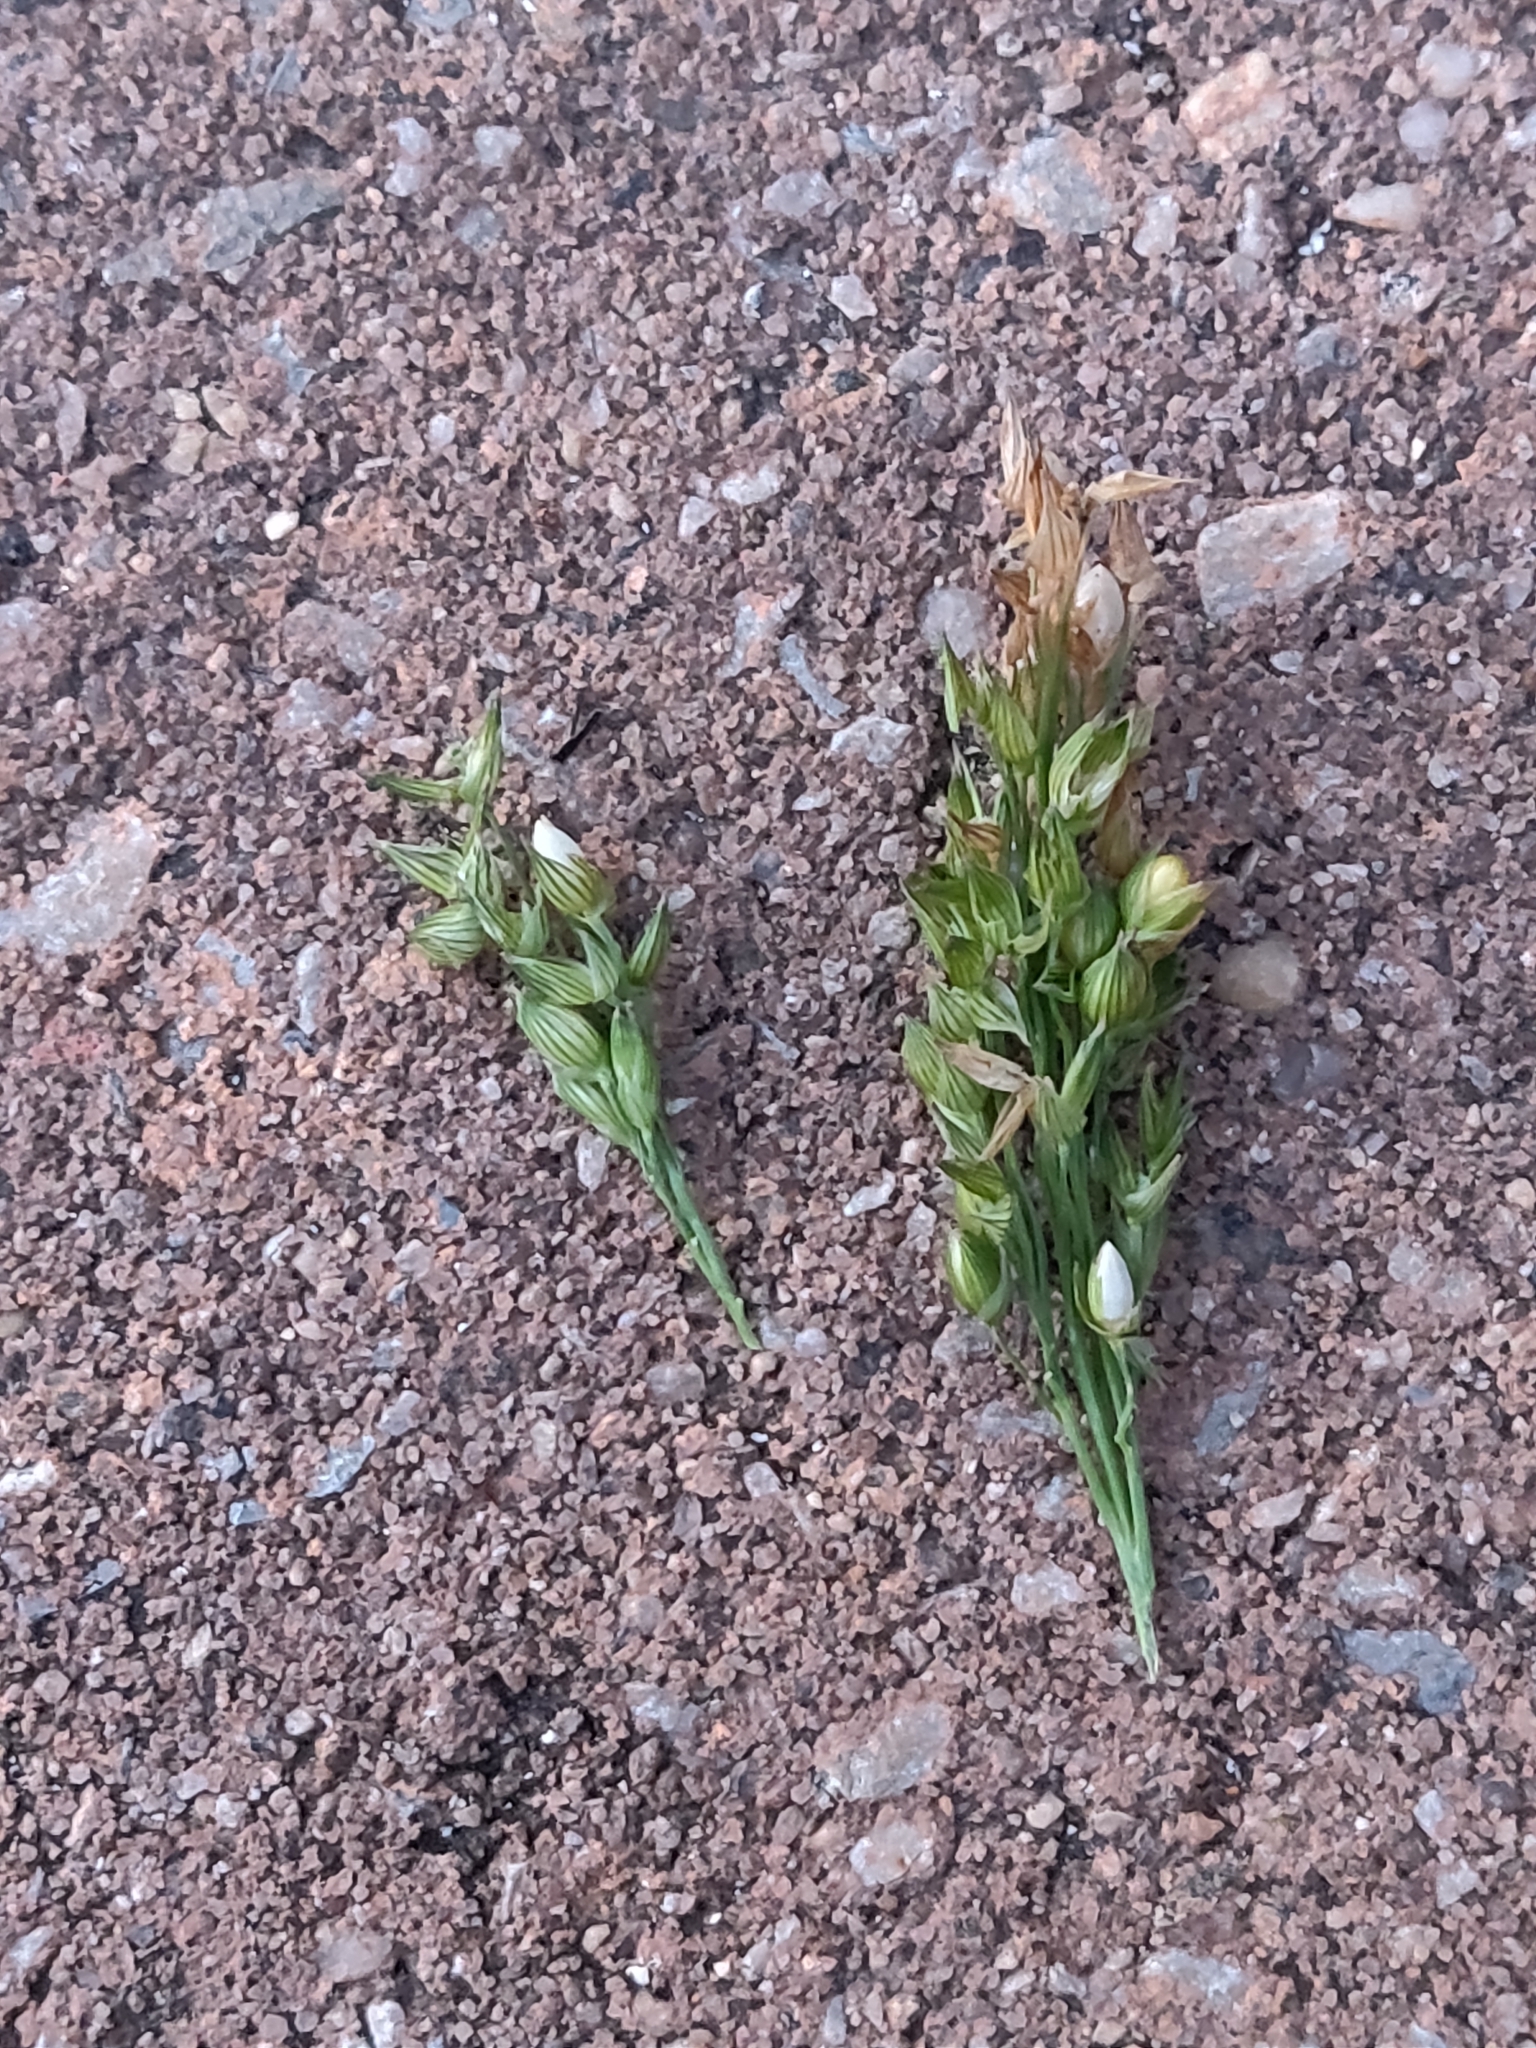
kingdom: Plantae
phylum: Tracheophyta
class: Liliopsida
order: Poales
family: Poaceae
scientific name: Poaceae
